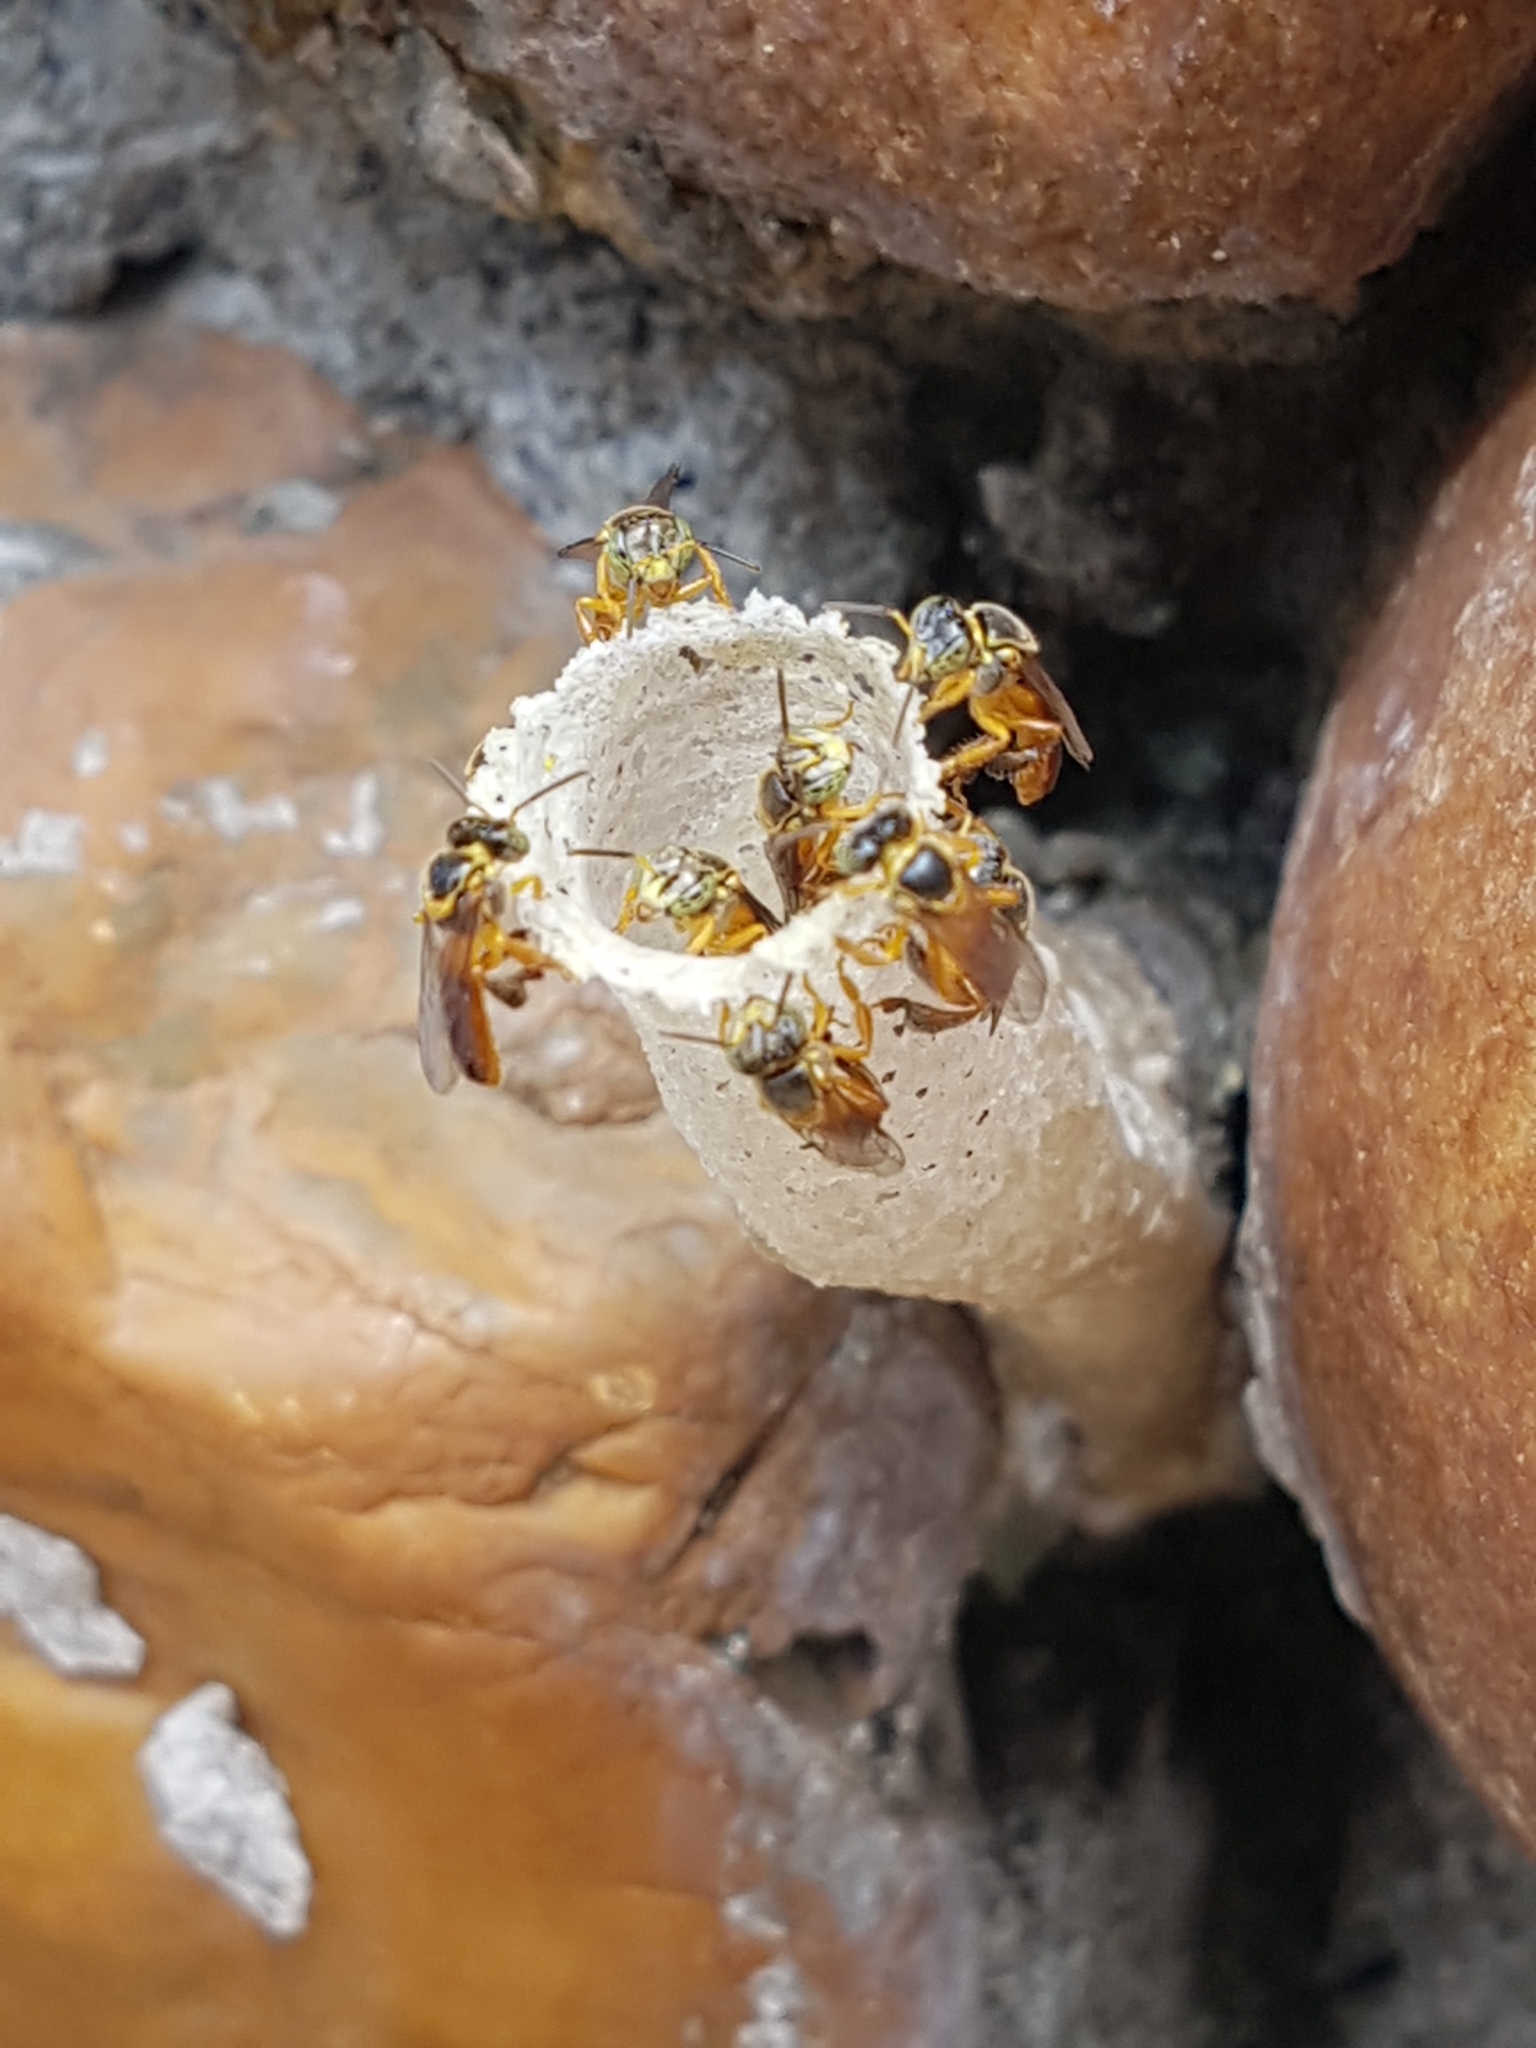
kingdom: Animalia
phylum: Arthropoda
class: Insecta
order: Hymenoptera
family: Apidae
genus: Tetragonisca
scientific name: Tetragonisca angustula
